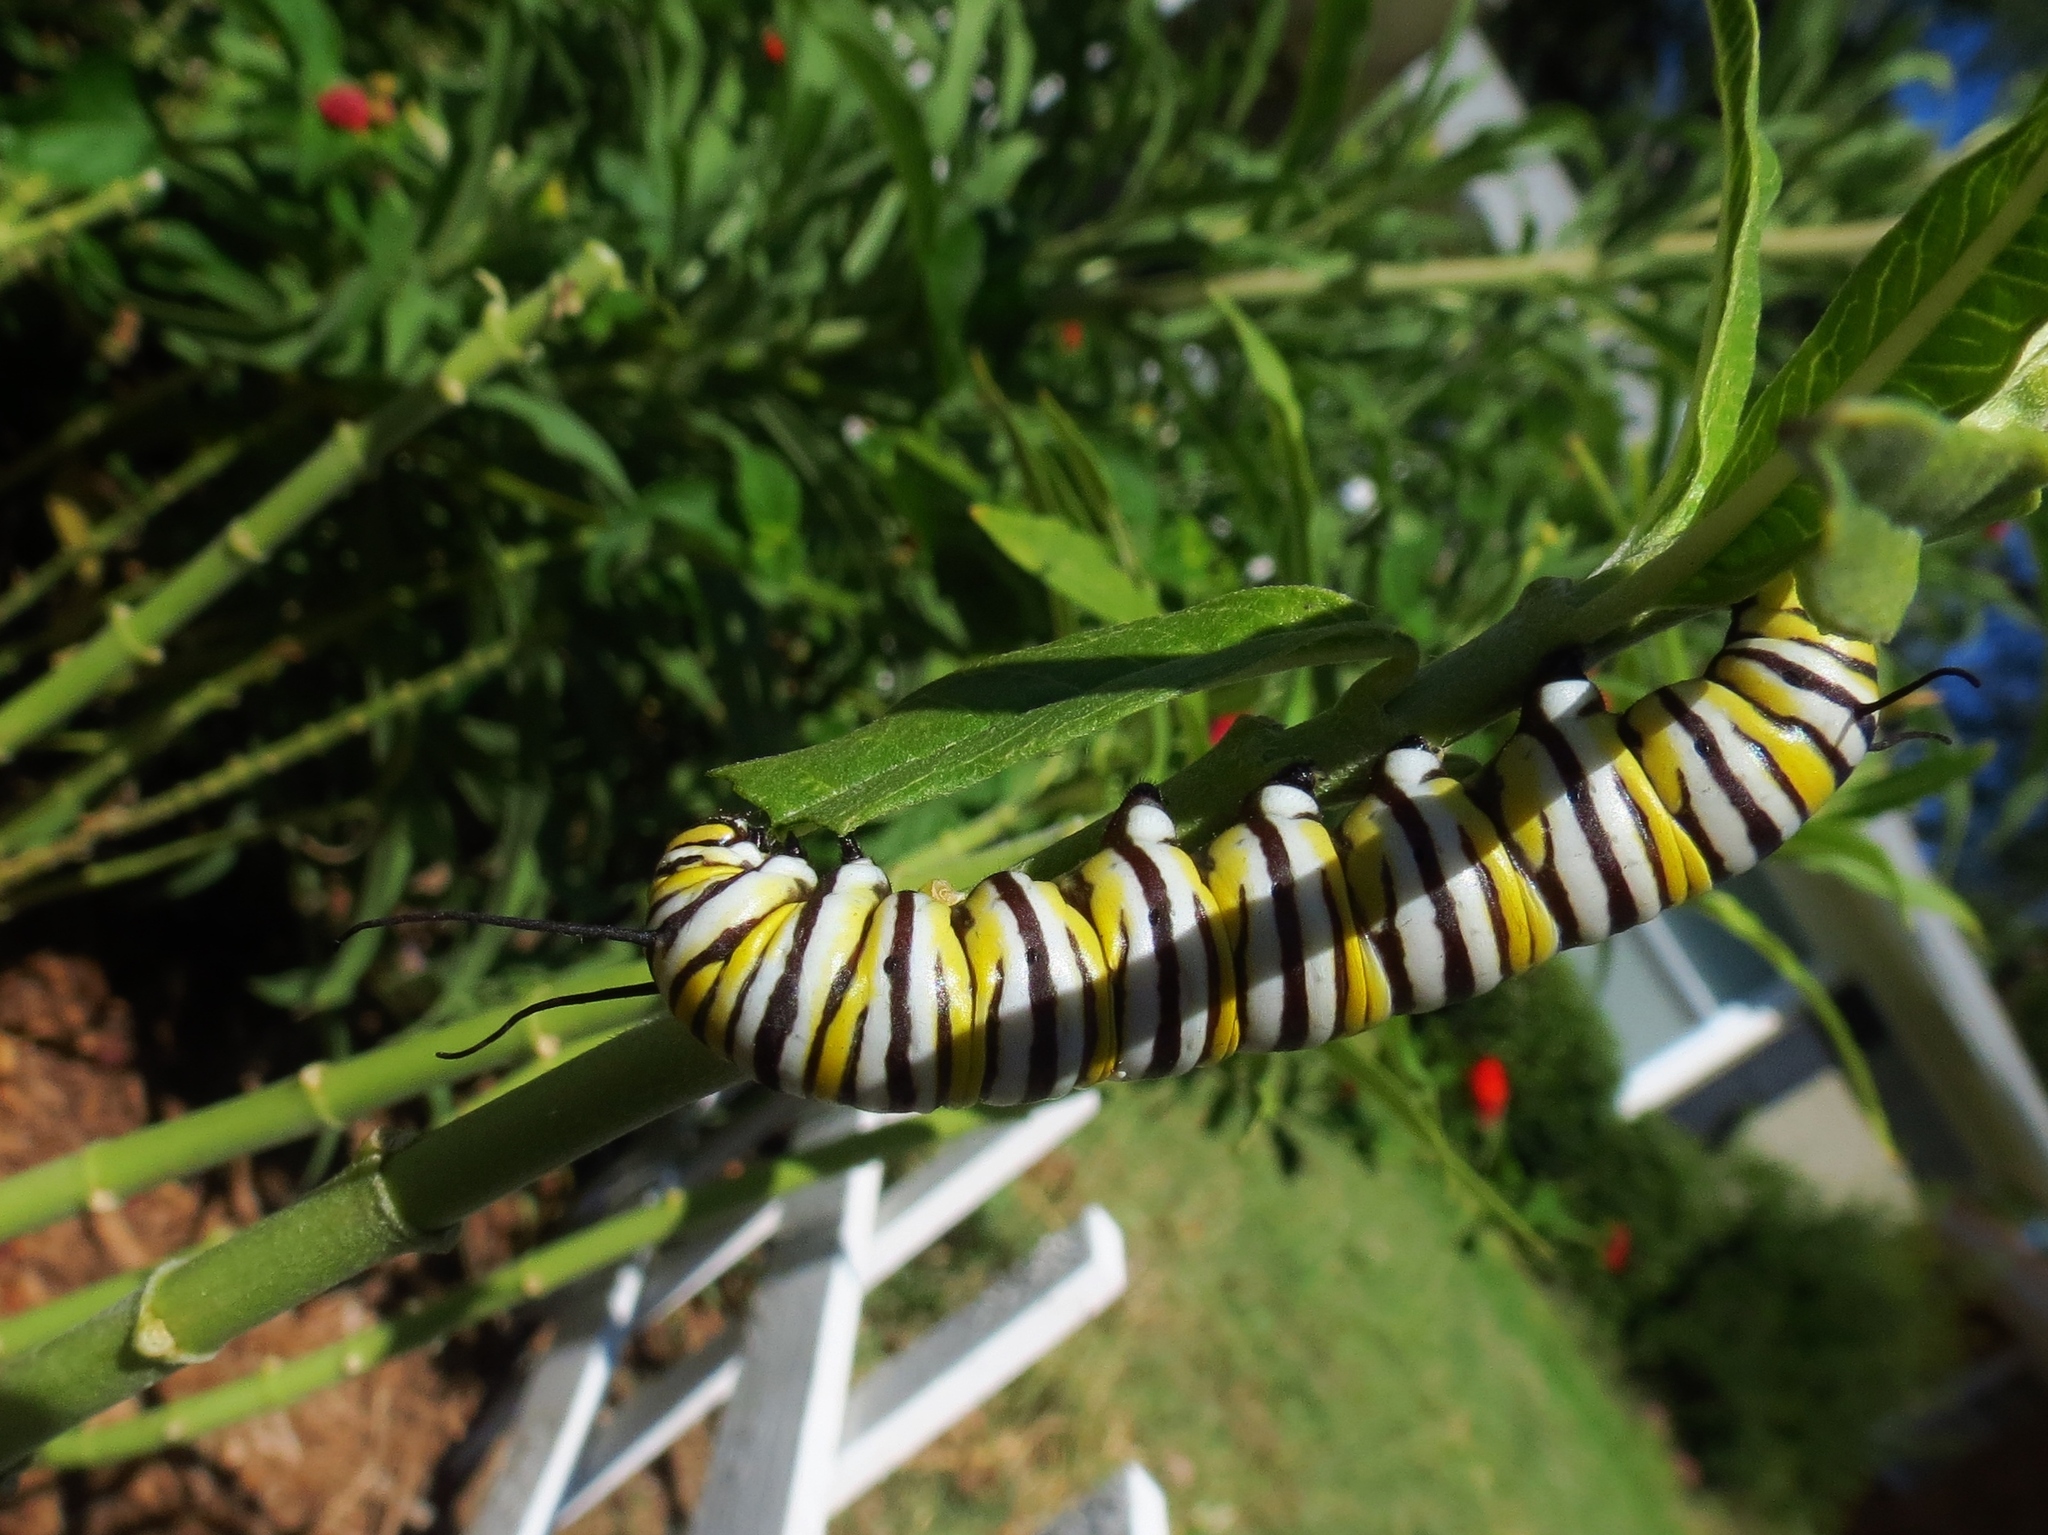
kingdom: Animalia
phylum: Arthropoda
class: Insecta
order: Lepidoptera
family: Nymphalidae
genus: Danaus
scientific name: Danaus plexippus
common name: Monarch
